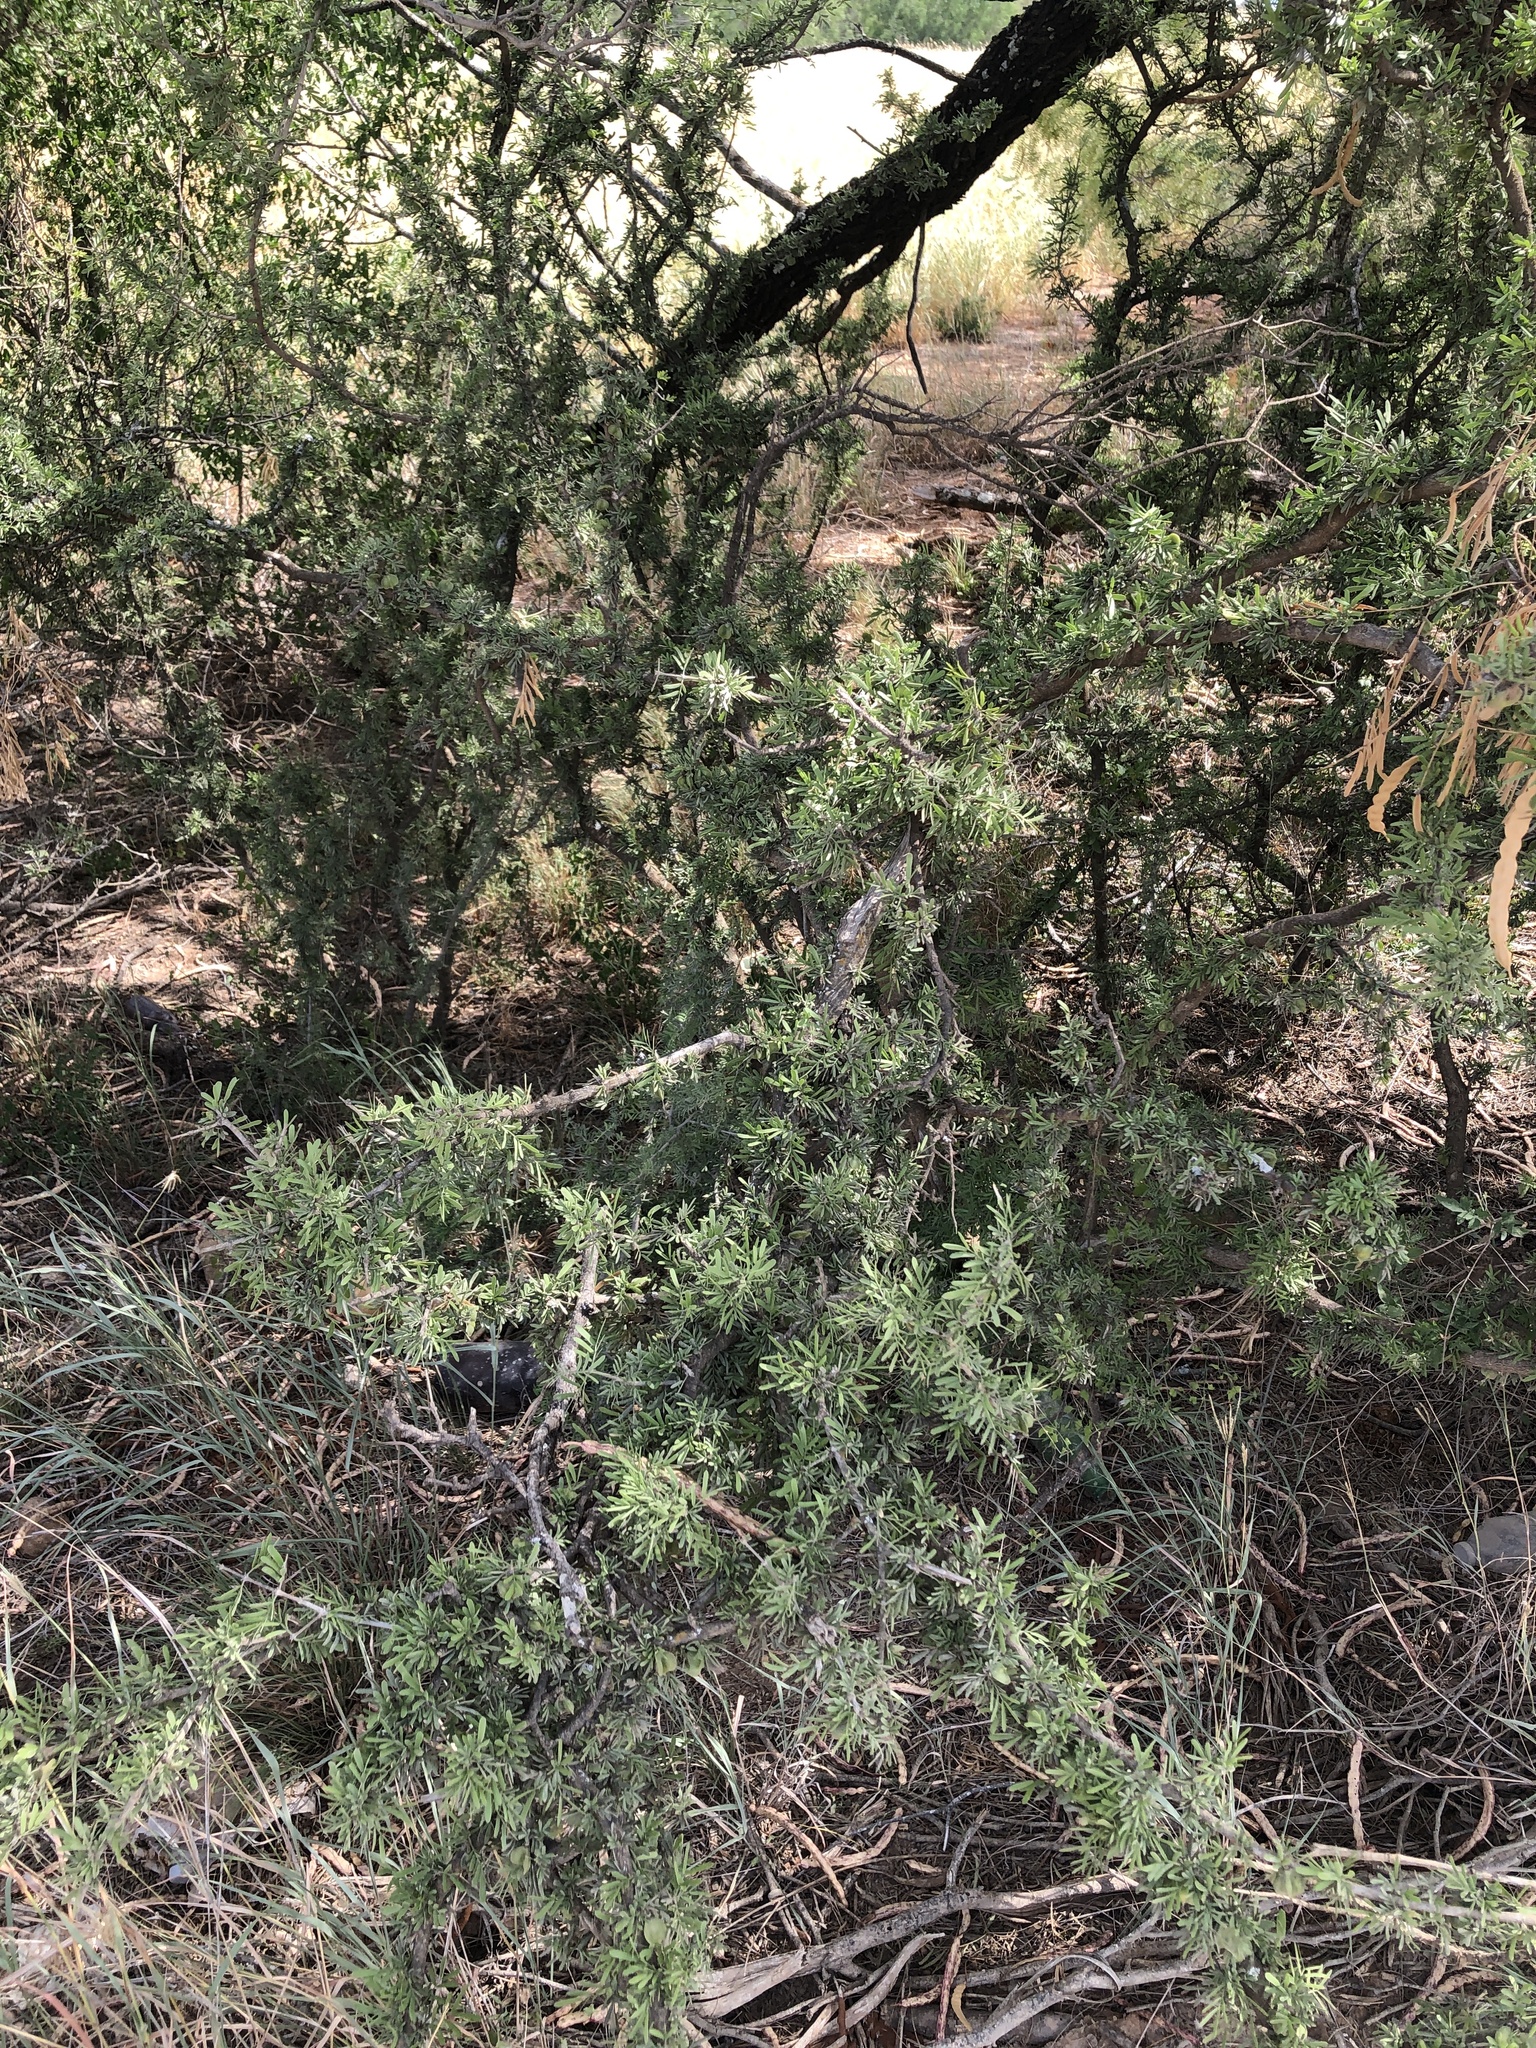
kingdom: Plantae
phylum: Tracheophyta
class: Magnoliopsida
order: Zygophyllales
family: Zygophyllaceae
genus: Porlieria
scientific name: Porlieria angustifolia
